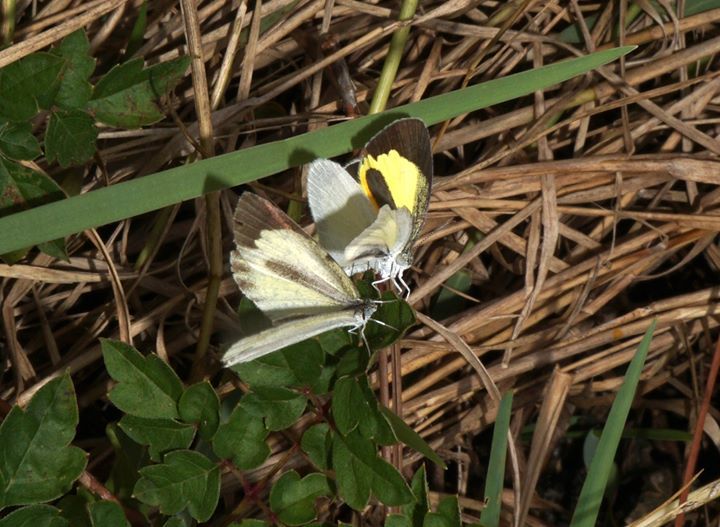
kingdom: Animalia
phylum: Arthropoda
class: Insecta
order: Lepidoptera
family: Pieridae
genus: Eurema
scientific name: Eurema daira
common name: Barred sulphur
